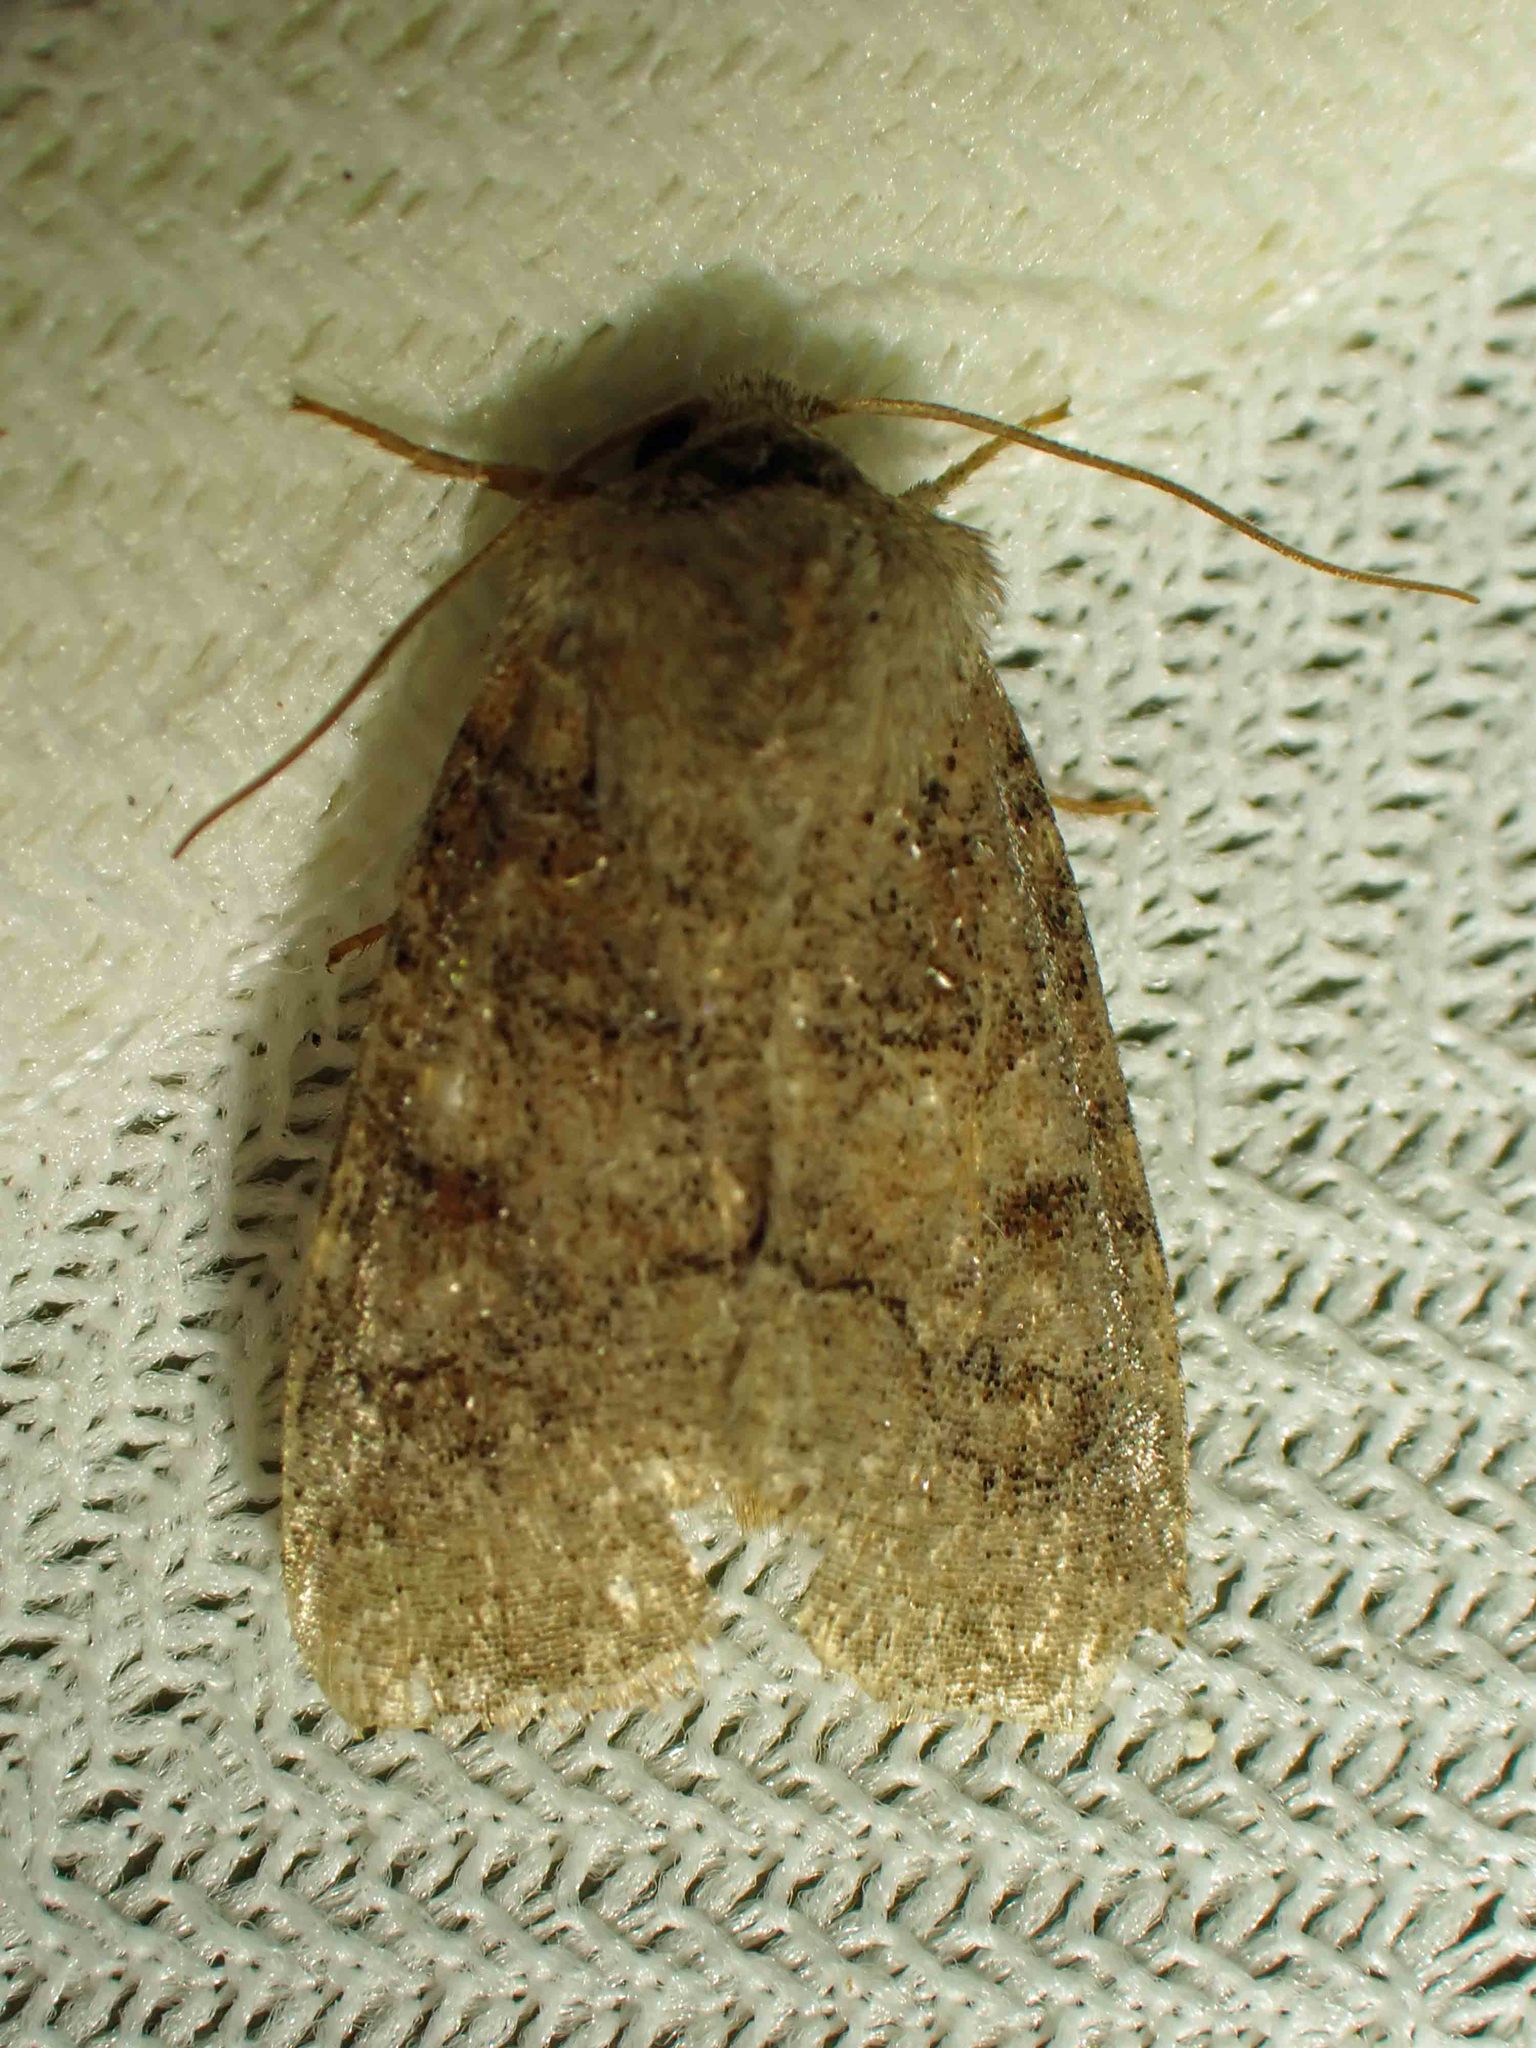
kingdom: Animalia
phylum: Arthropoda
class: Insecta
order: Lepidoptera
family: Noctuidae
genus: Crocigrapha
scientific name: Crocigrapha normani
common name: Norman's quaker
